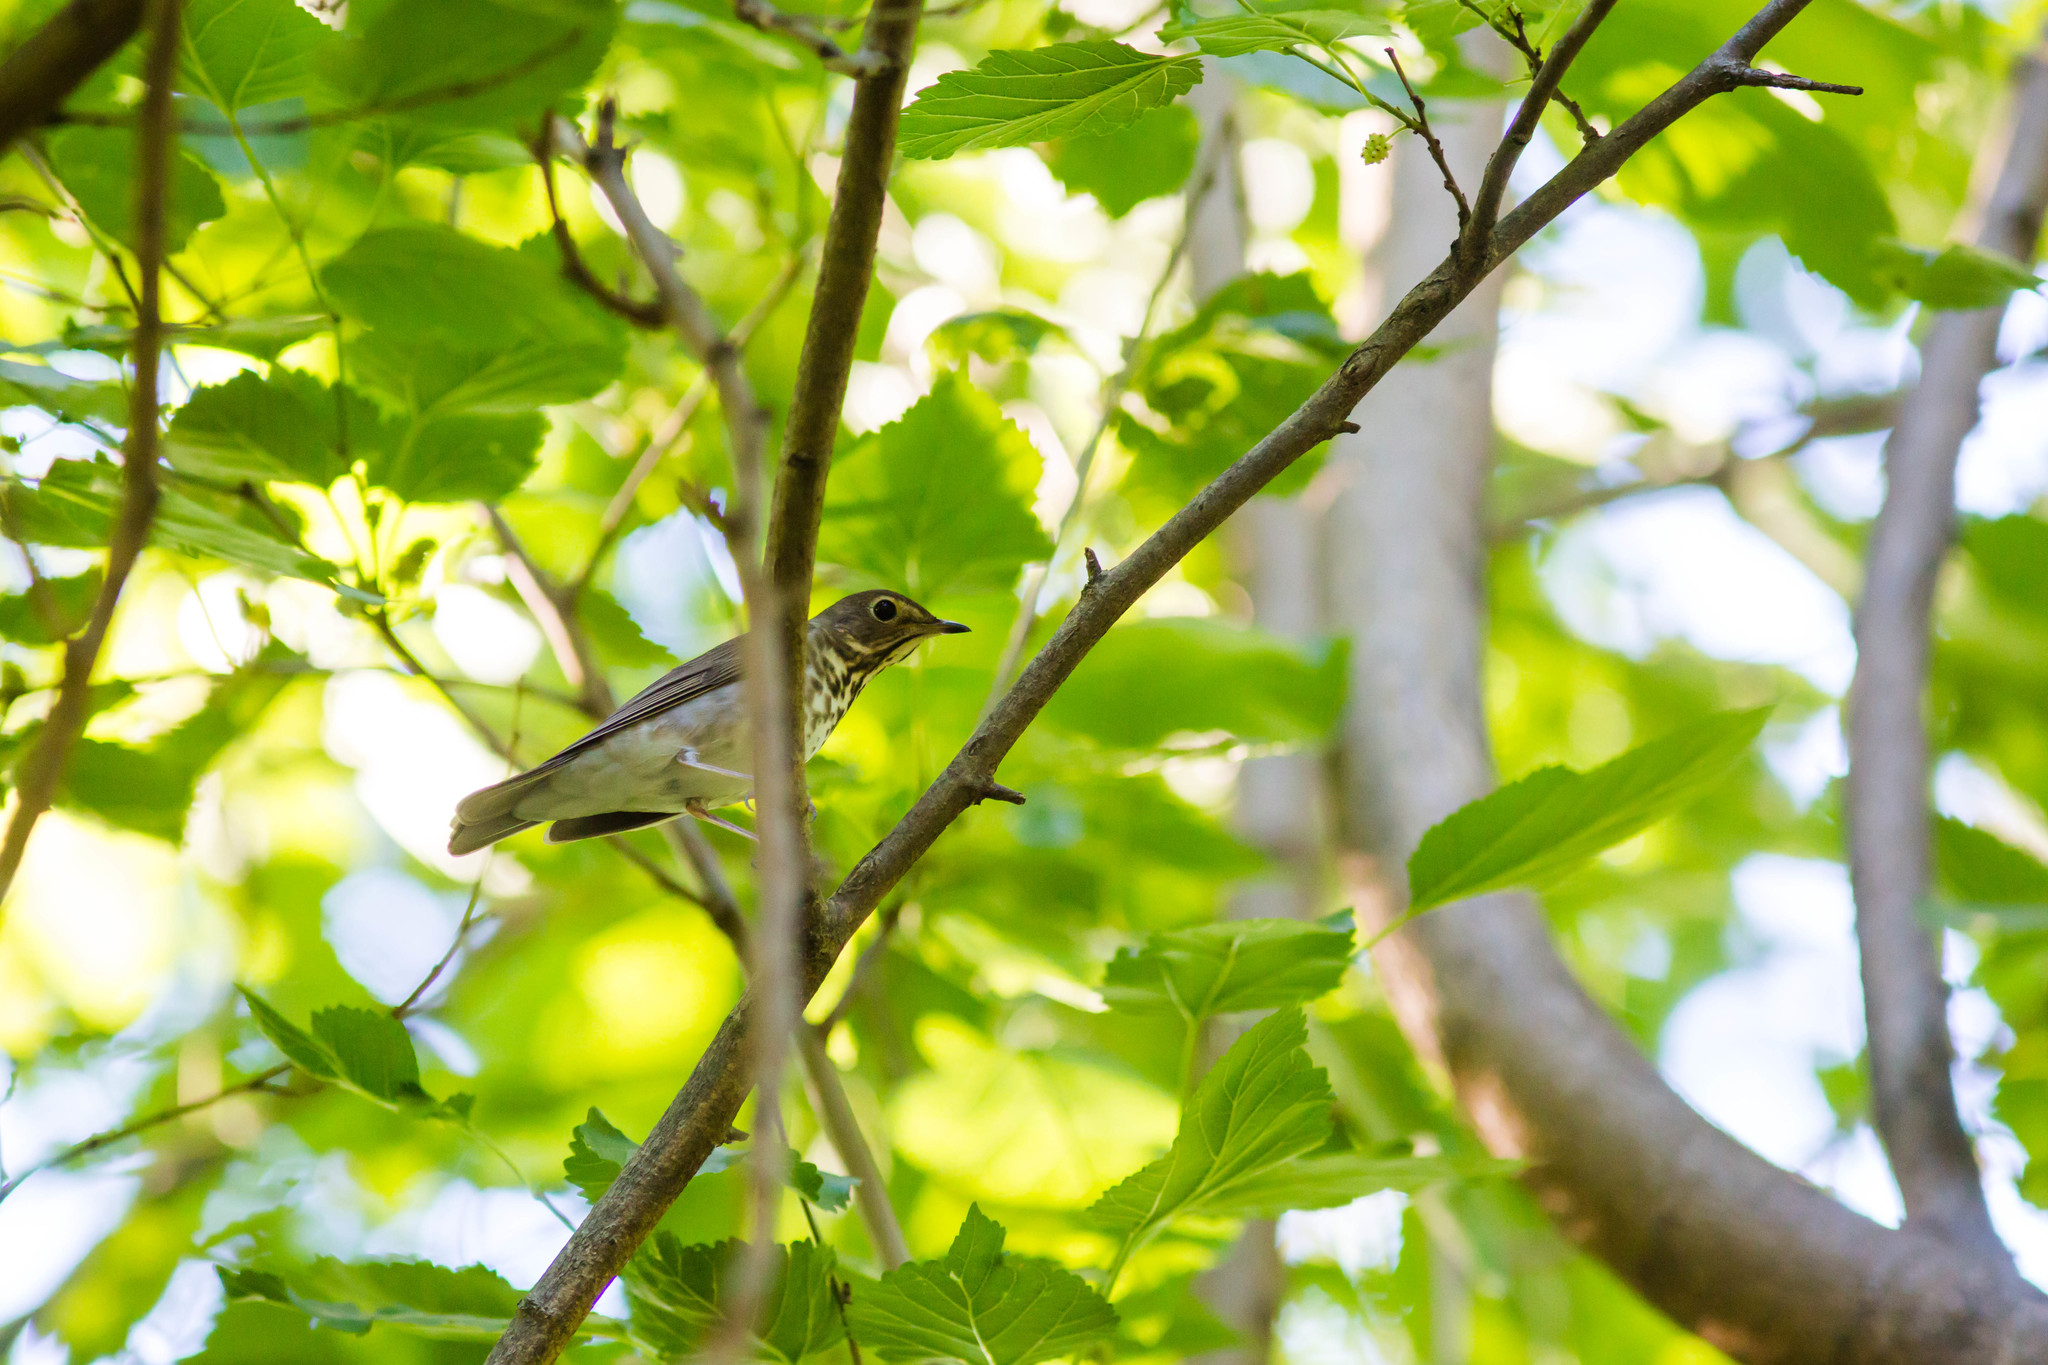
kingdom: Animalia
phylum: Chordata
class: Aves
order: Passeriformes
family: Turdidae
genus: Catharus
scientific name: Catharus ustulatus
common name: Swainson's thrush
